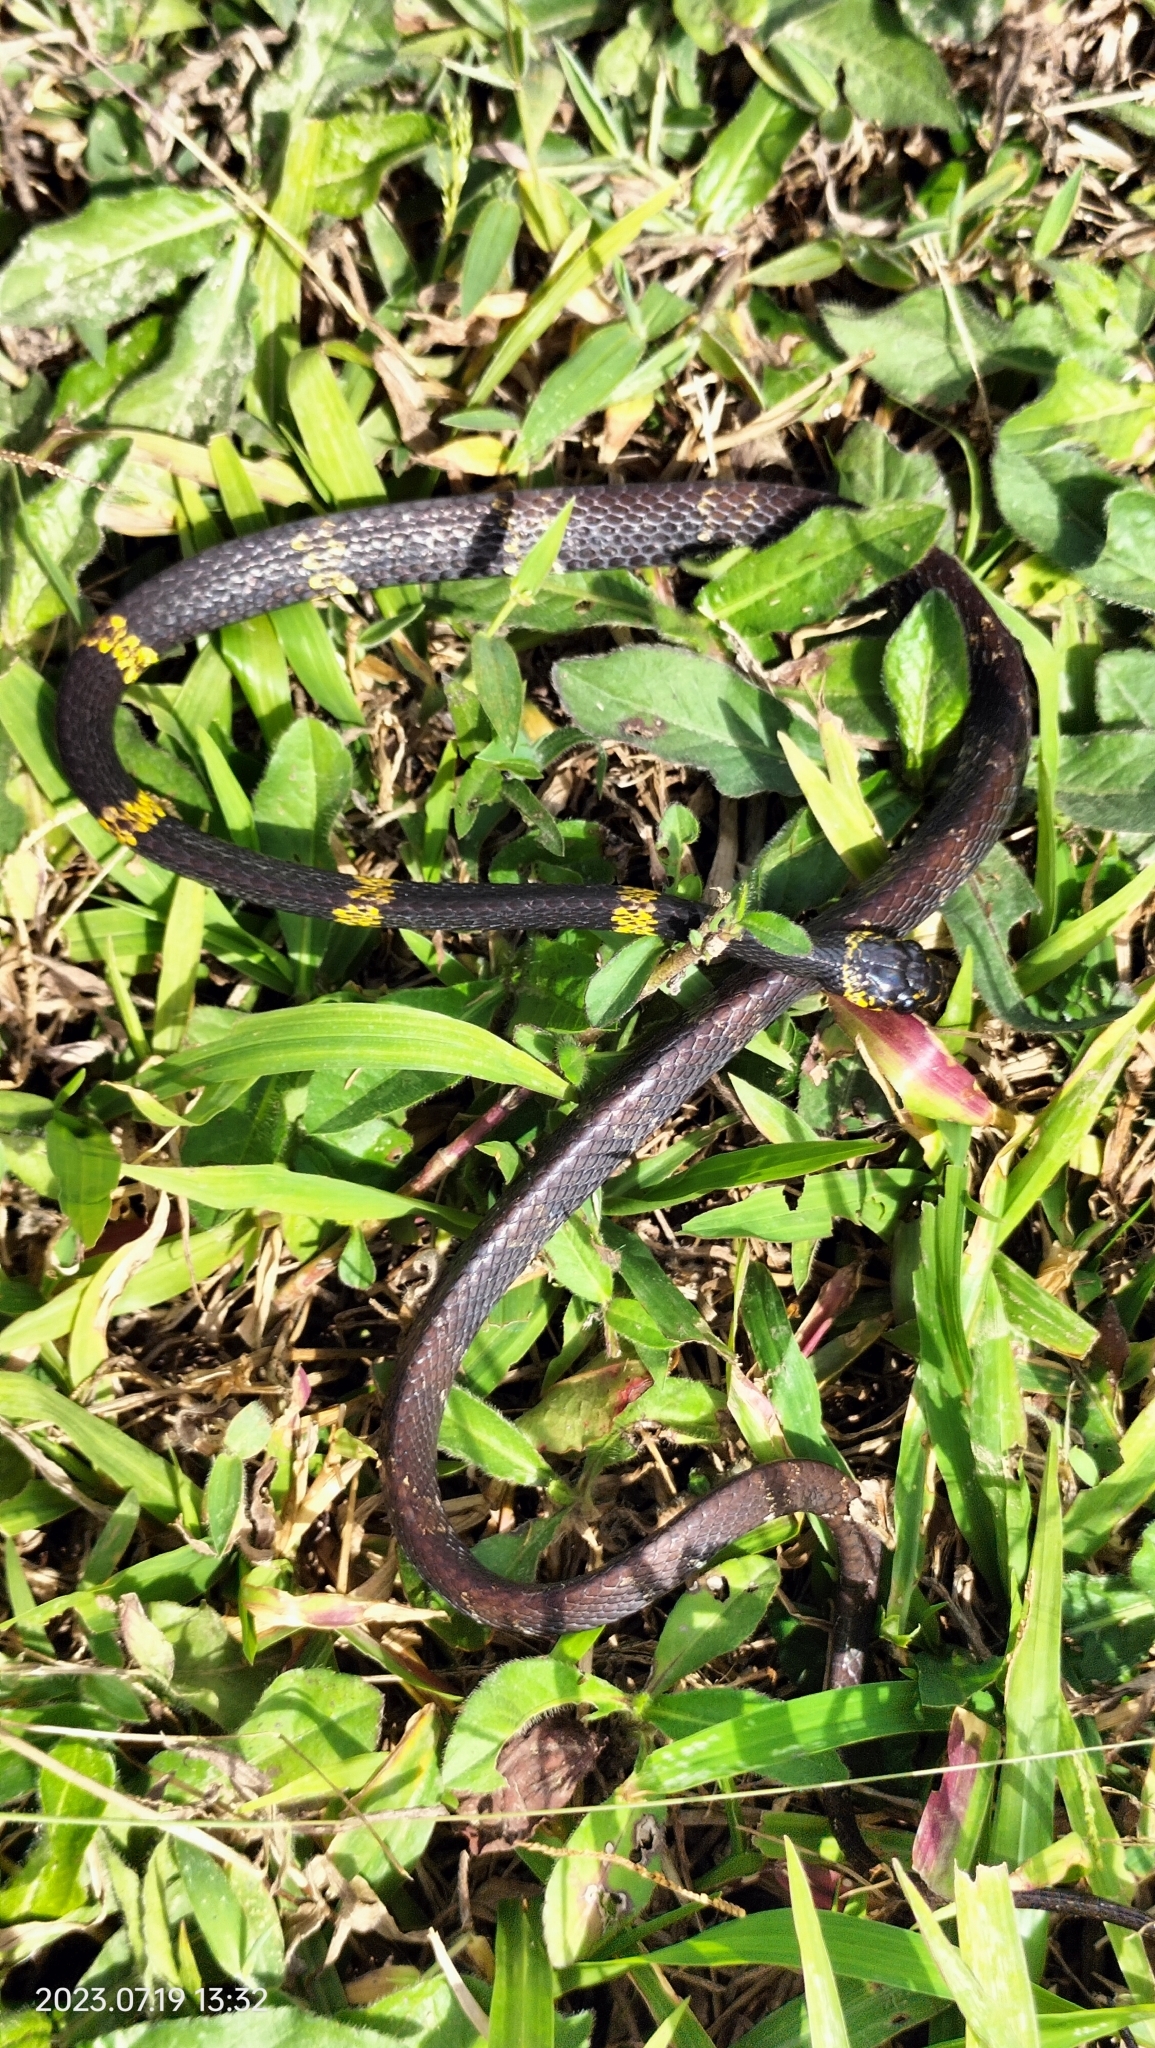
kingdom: Animalia
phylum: Chordata
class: Squamata
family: Colubridae
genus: Dipsas
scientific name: Dipsas schunkii
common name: Schunk's snail-eater
